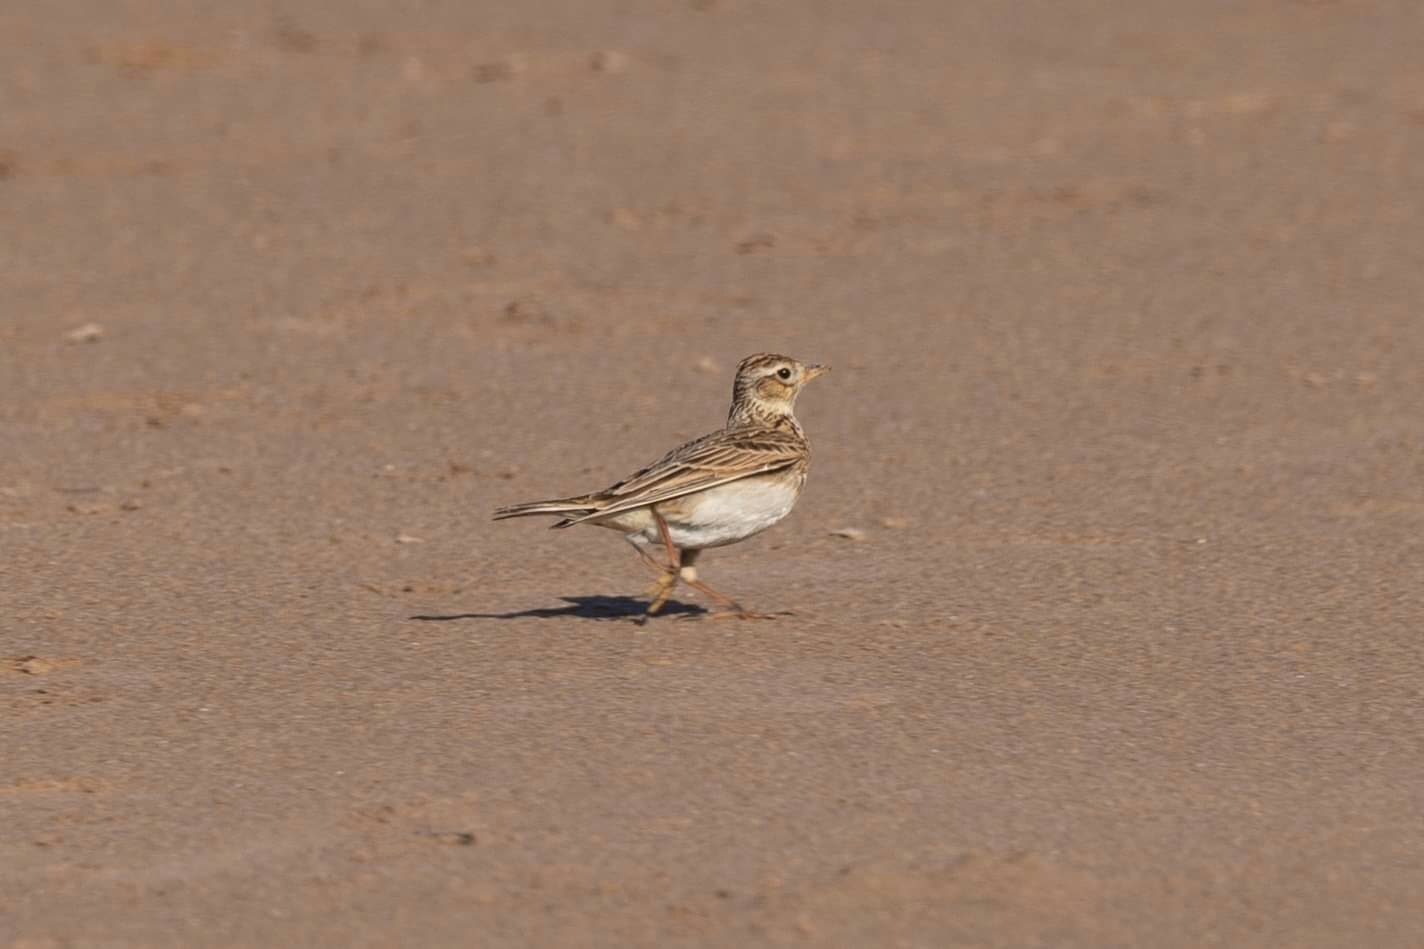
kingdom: Animalia
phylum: Chordata
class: Aves
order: Passeriformes
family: Alaudidae
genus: Alauda
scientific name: Alauda arvensis
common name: Eurasian skylark
